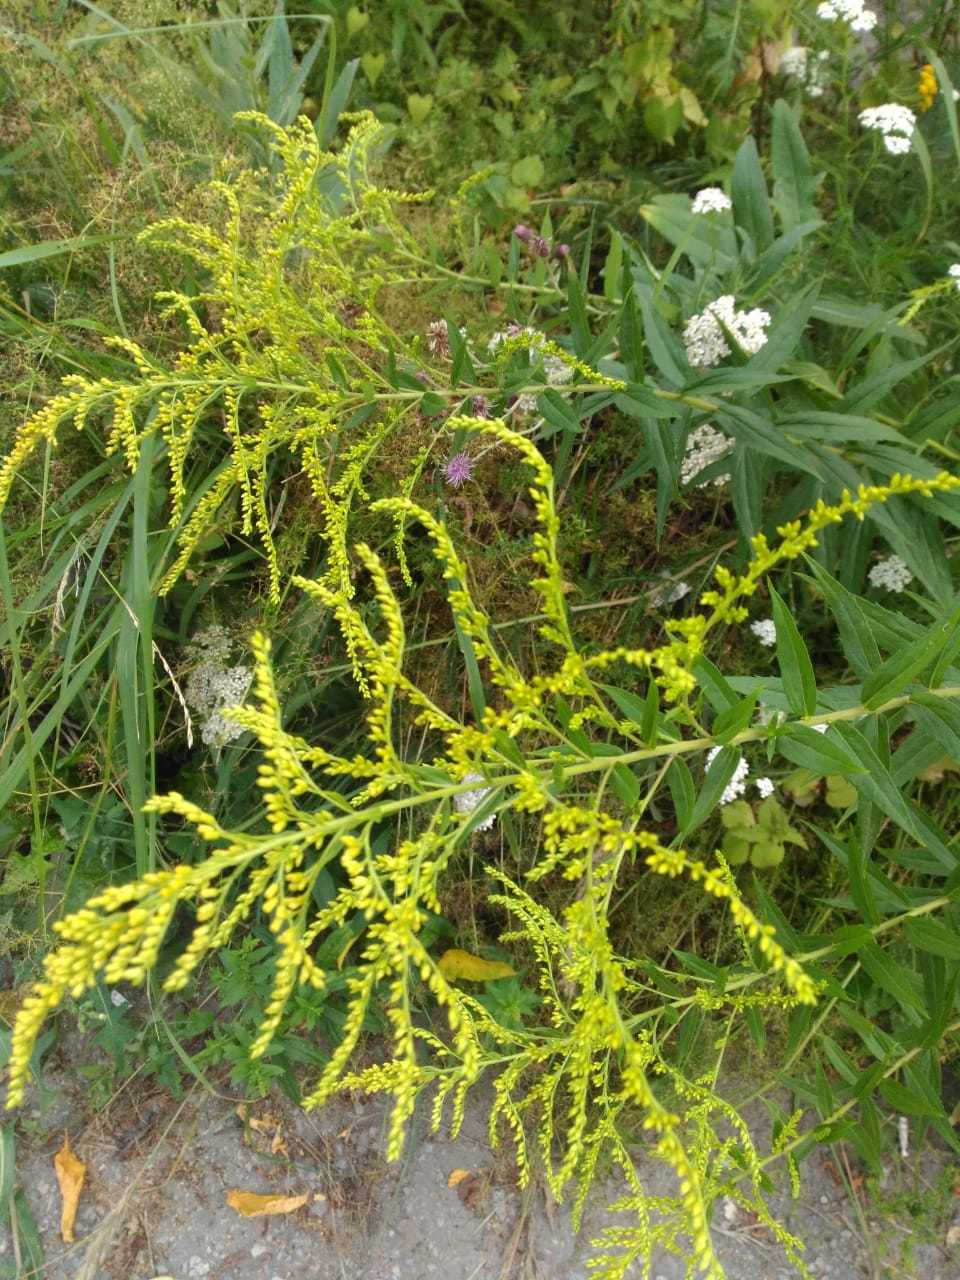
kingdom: Plantae
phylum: Tracheophyta
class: Magnoliopsida
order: Asterales
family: Asteraceae
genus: Solidago
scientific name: Solidago canadensis
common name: Canada goldenrod
